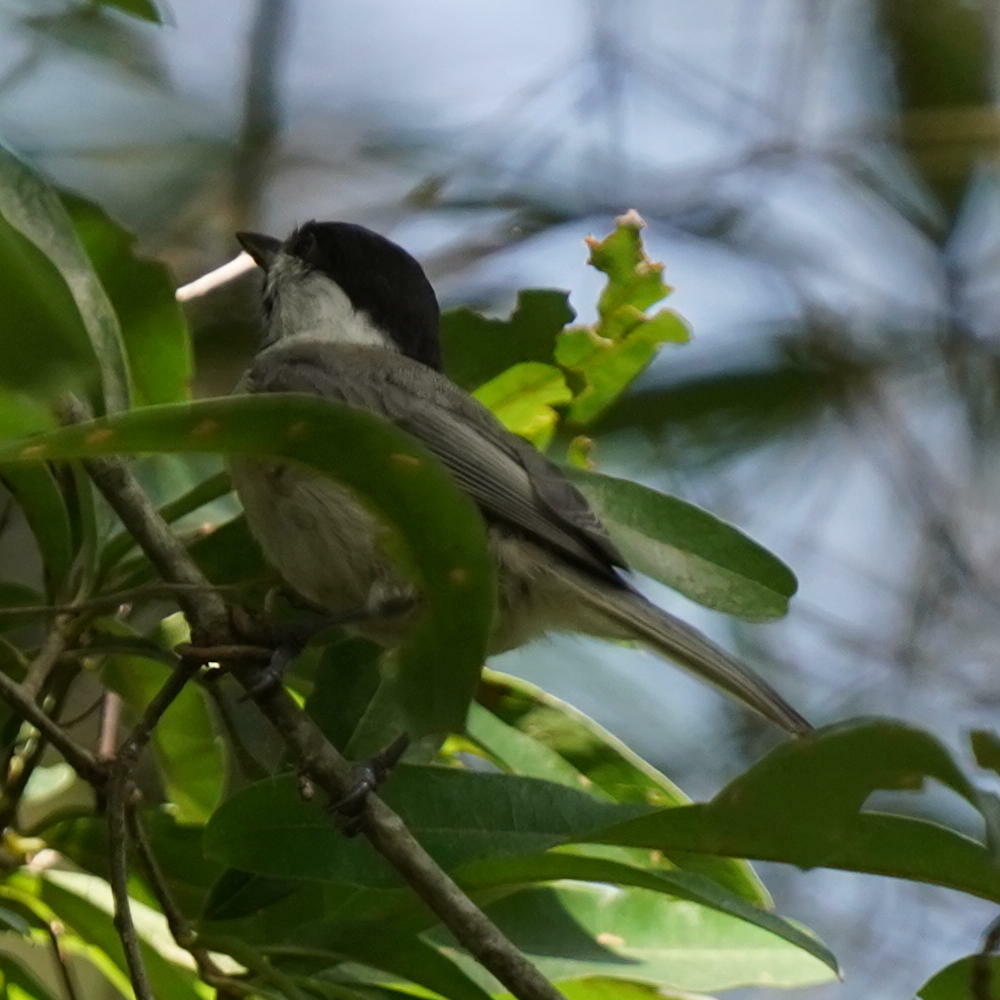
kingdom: Animalia
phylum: Chordata
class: Aves
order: Passeriformes
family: Paridae
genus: Poecile
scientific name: Poecile carolinensis
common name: Carolina chickadee
